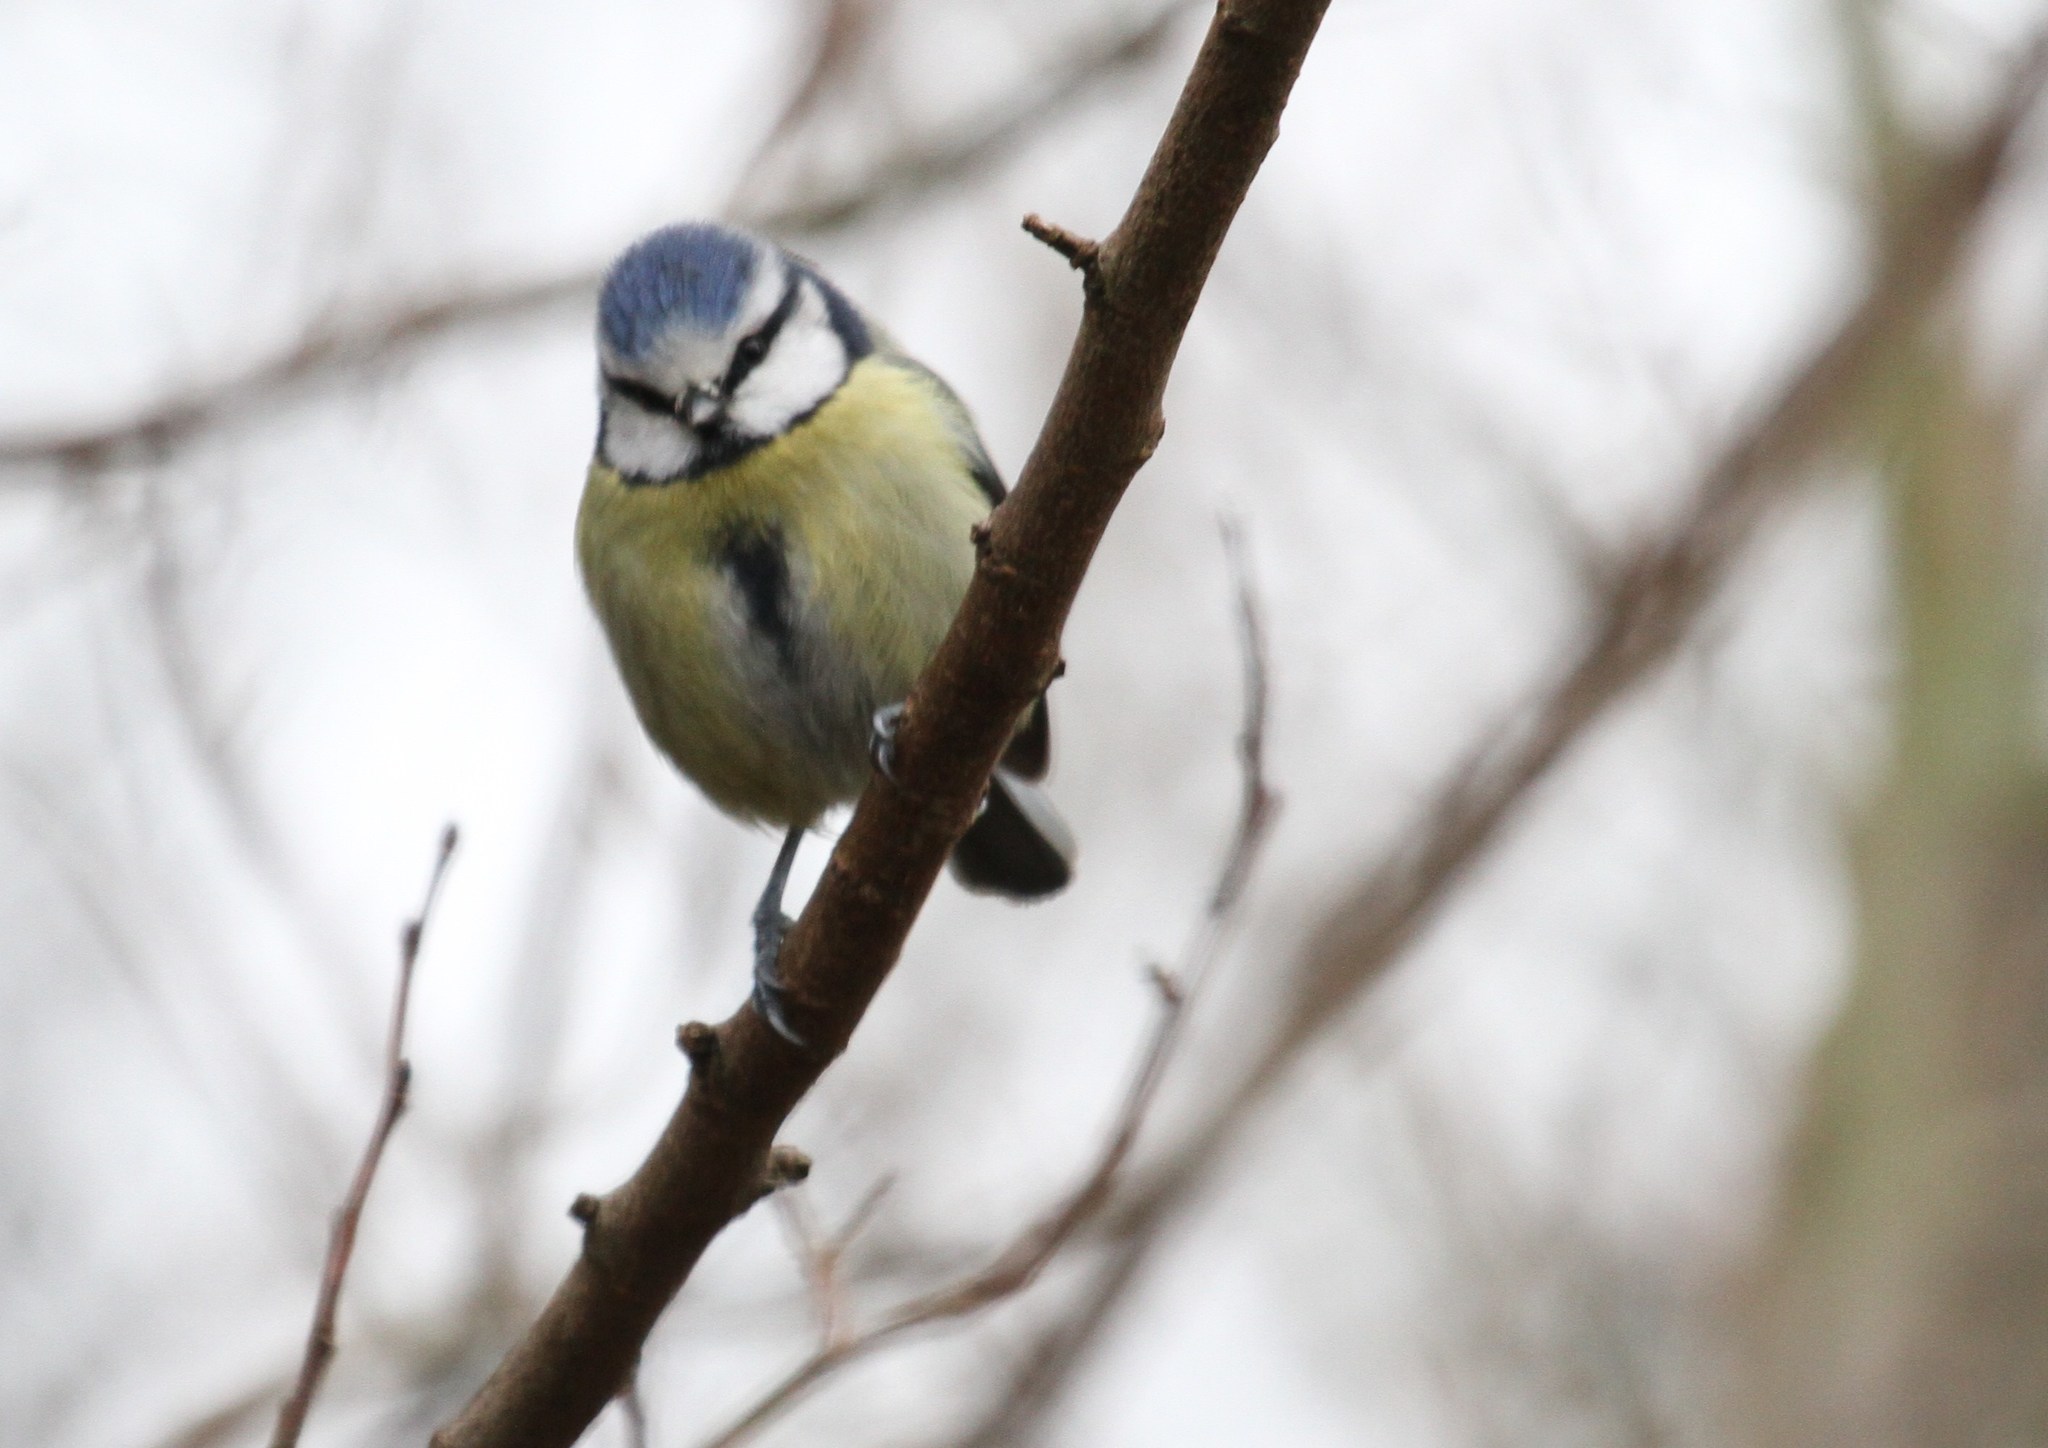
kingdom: Animalia
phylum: Chordata
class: Aves
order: Passeriformes
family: Paridae
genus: Cyanistes
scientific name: Cyanistes caeruleus
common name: Eurasian blue tit
